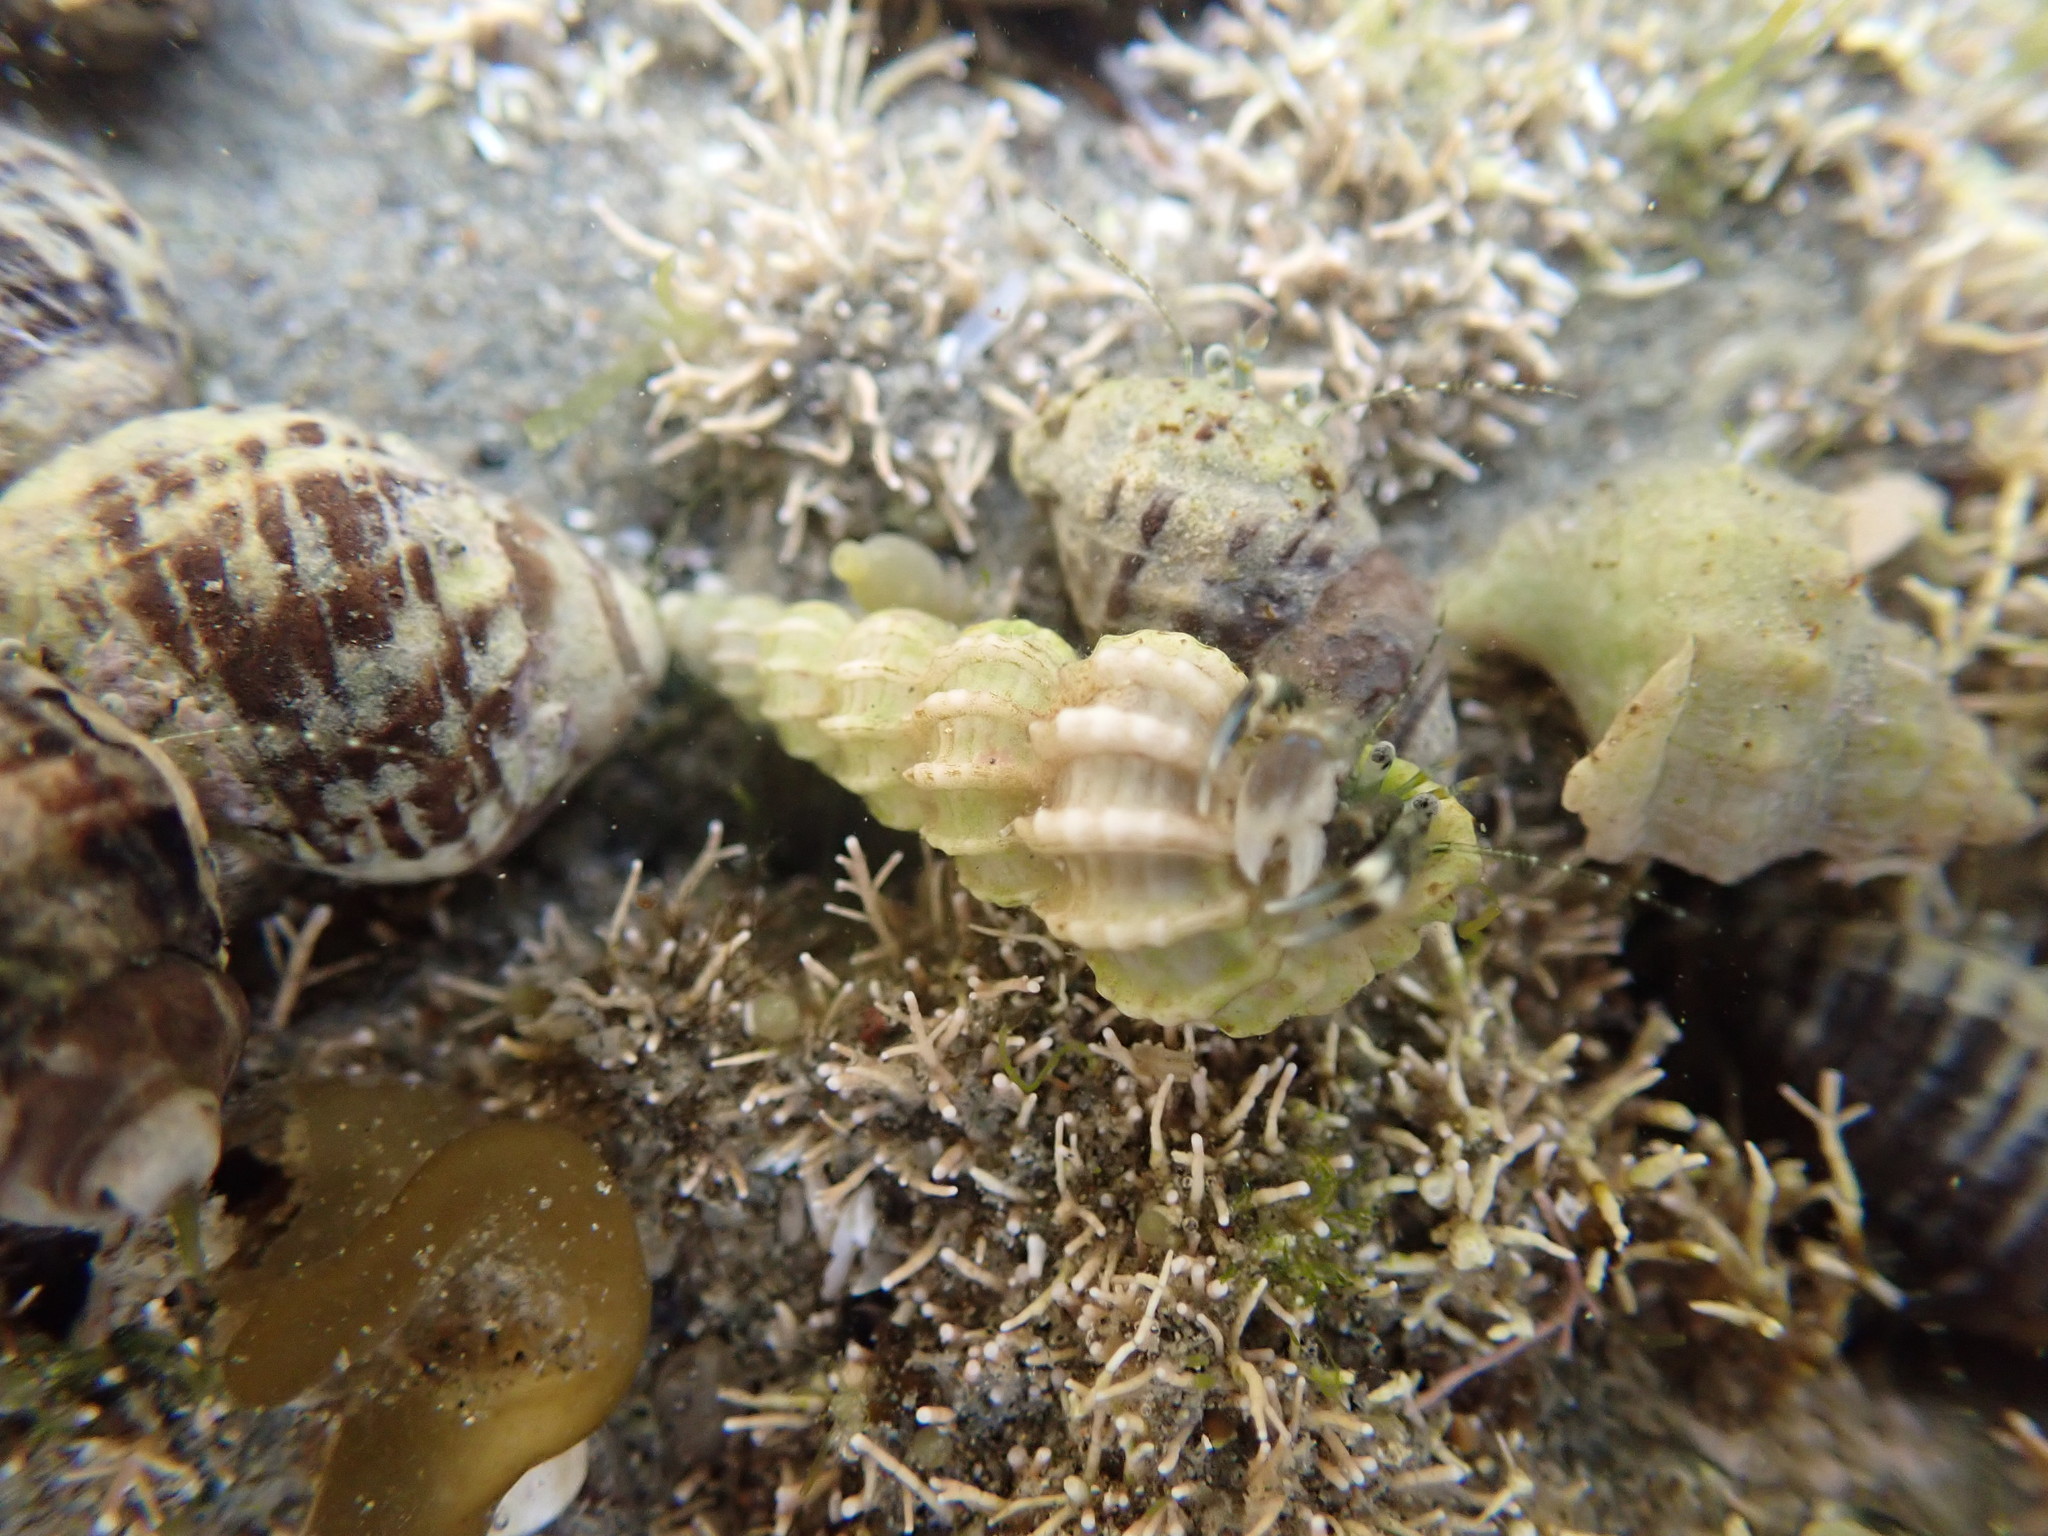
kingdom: Animalia
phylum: Mollusca
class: Gastropoda
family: Epitoniidae
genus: Cirsotrema
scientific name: Cirsotrema zelebori
